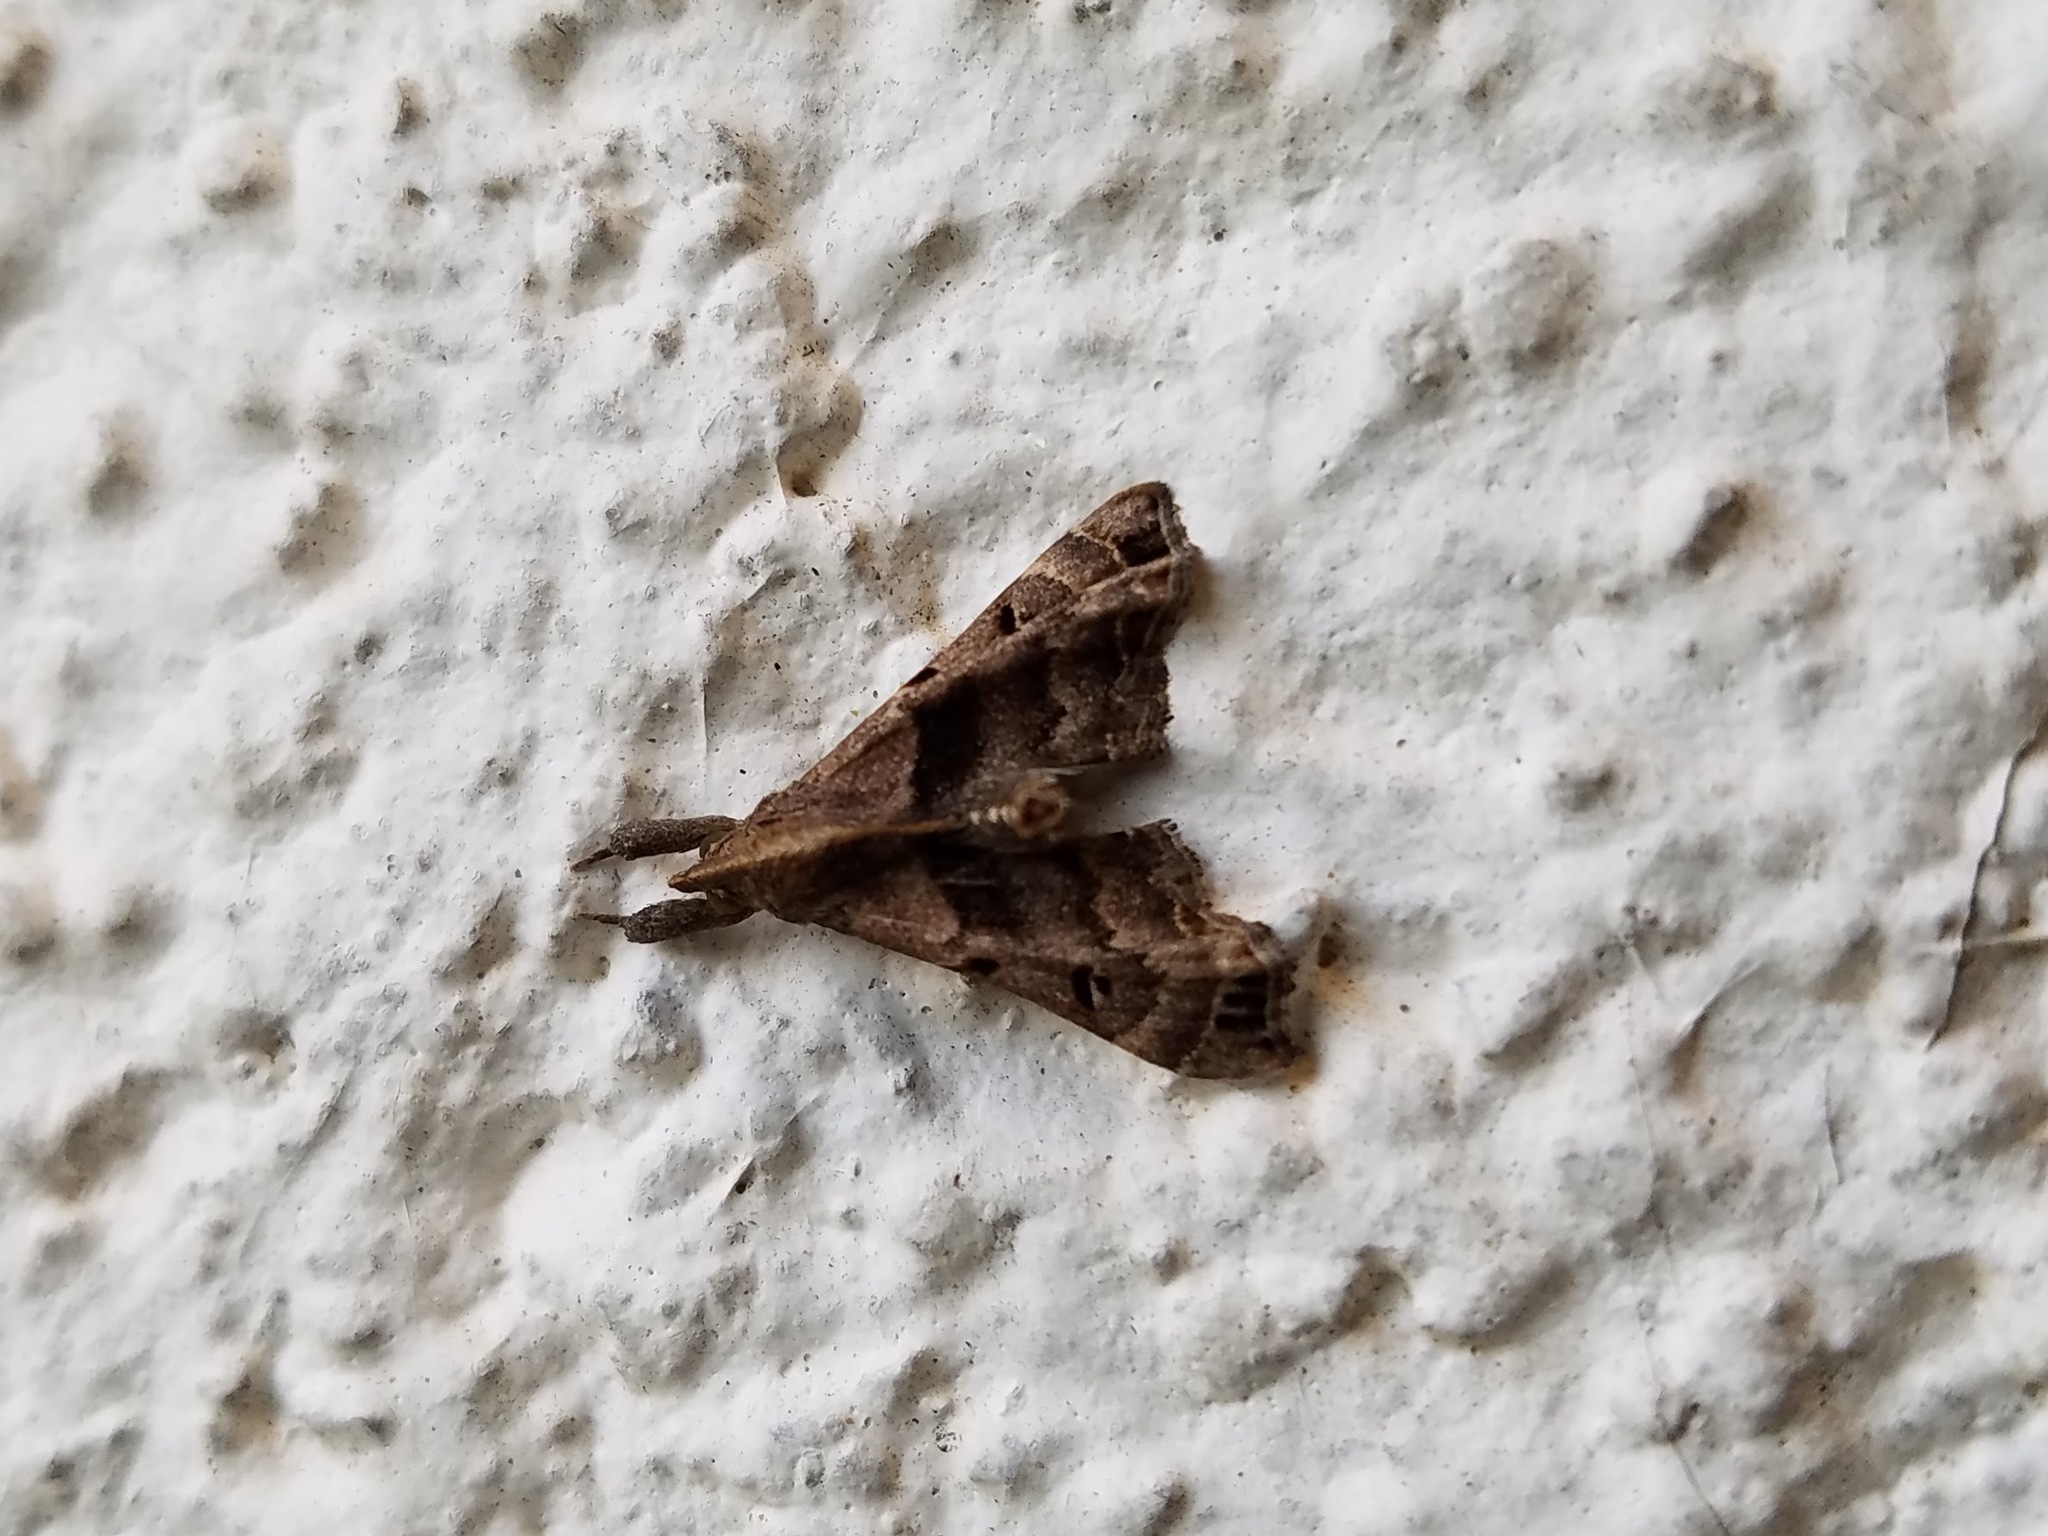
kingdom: Animalia
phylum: Arthropoda
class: Insecta
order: Lepidoptera
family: Erebidae
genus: Palthis
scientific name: Palthis asopialis
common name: Faint-spotted palthis moth
